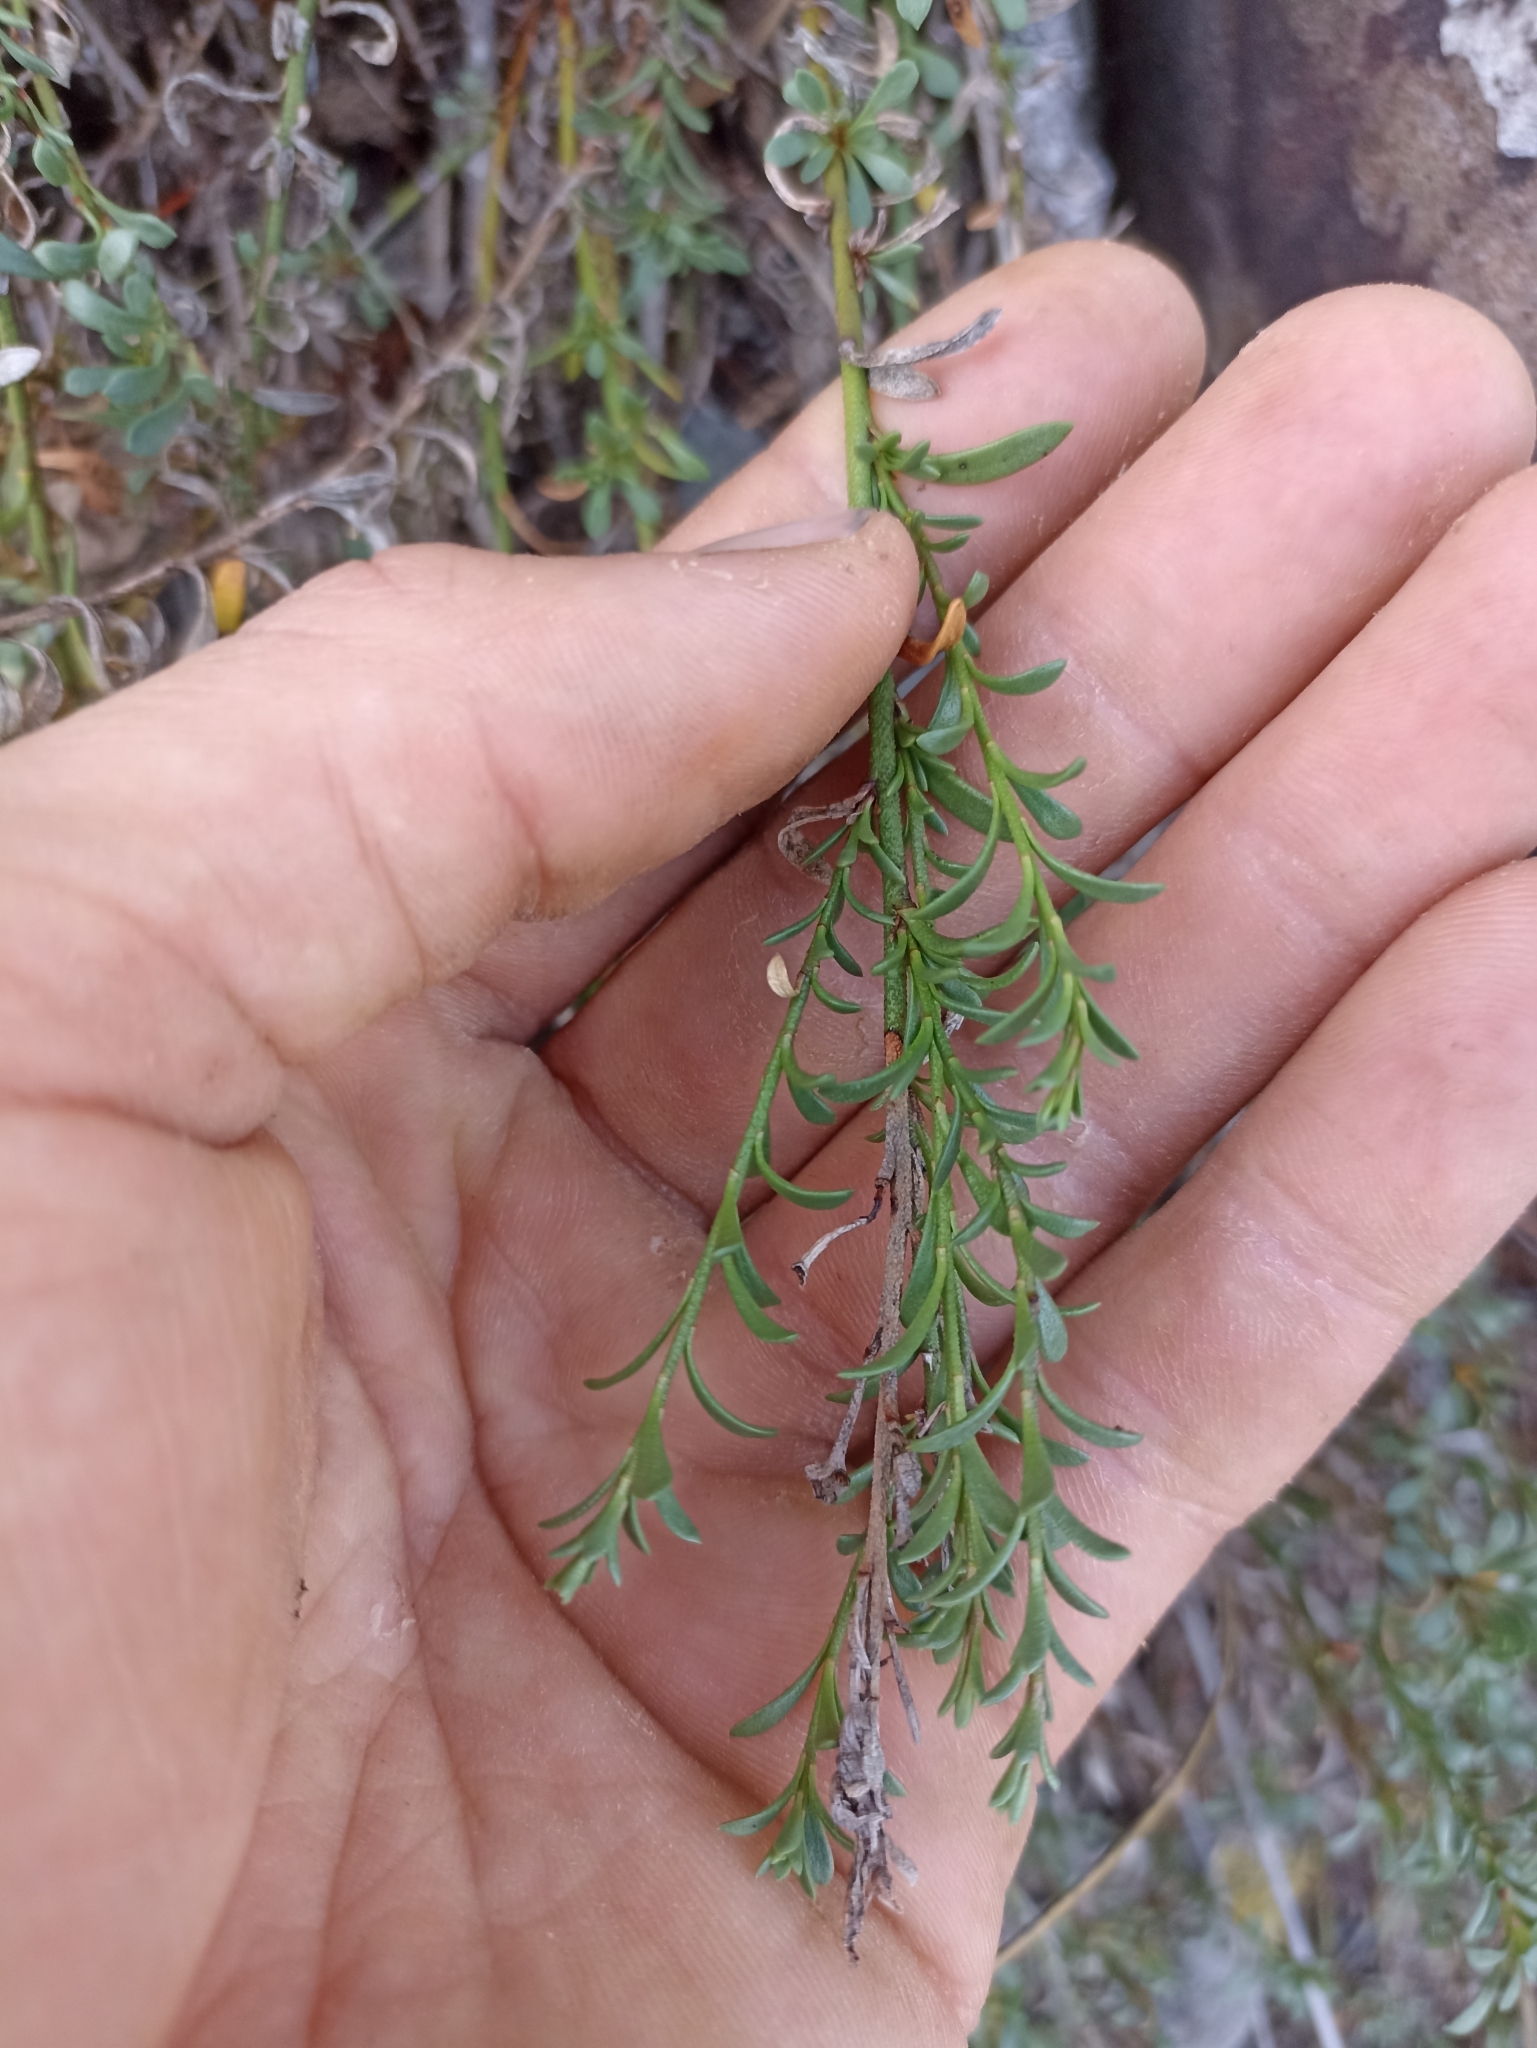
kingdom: Plantae
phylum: Tracheophyta
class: Magnoliopsida
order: Ericales
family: Primulaceae
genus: Samolus
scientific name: Samolus repens
